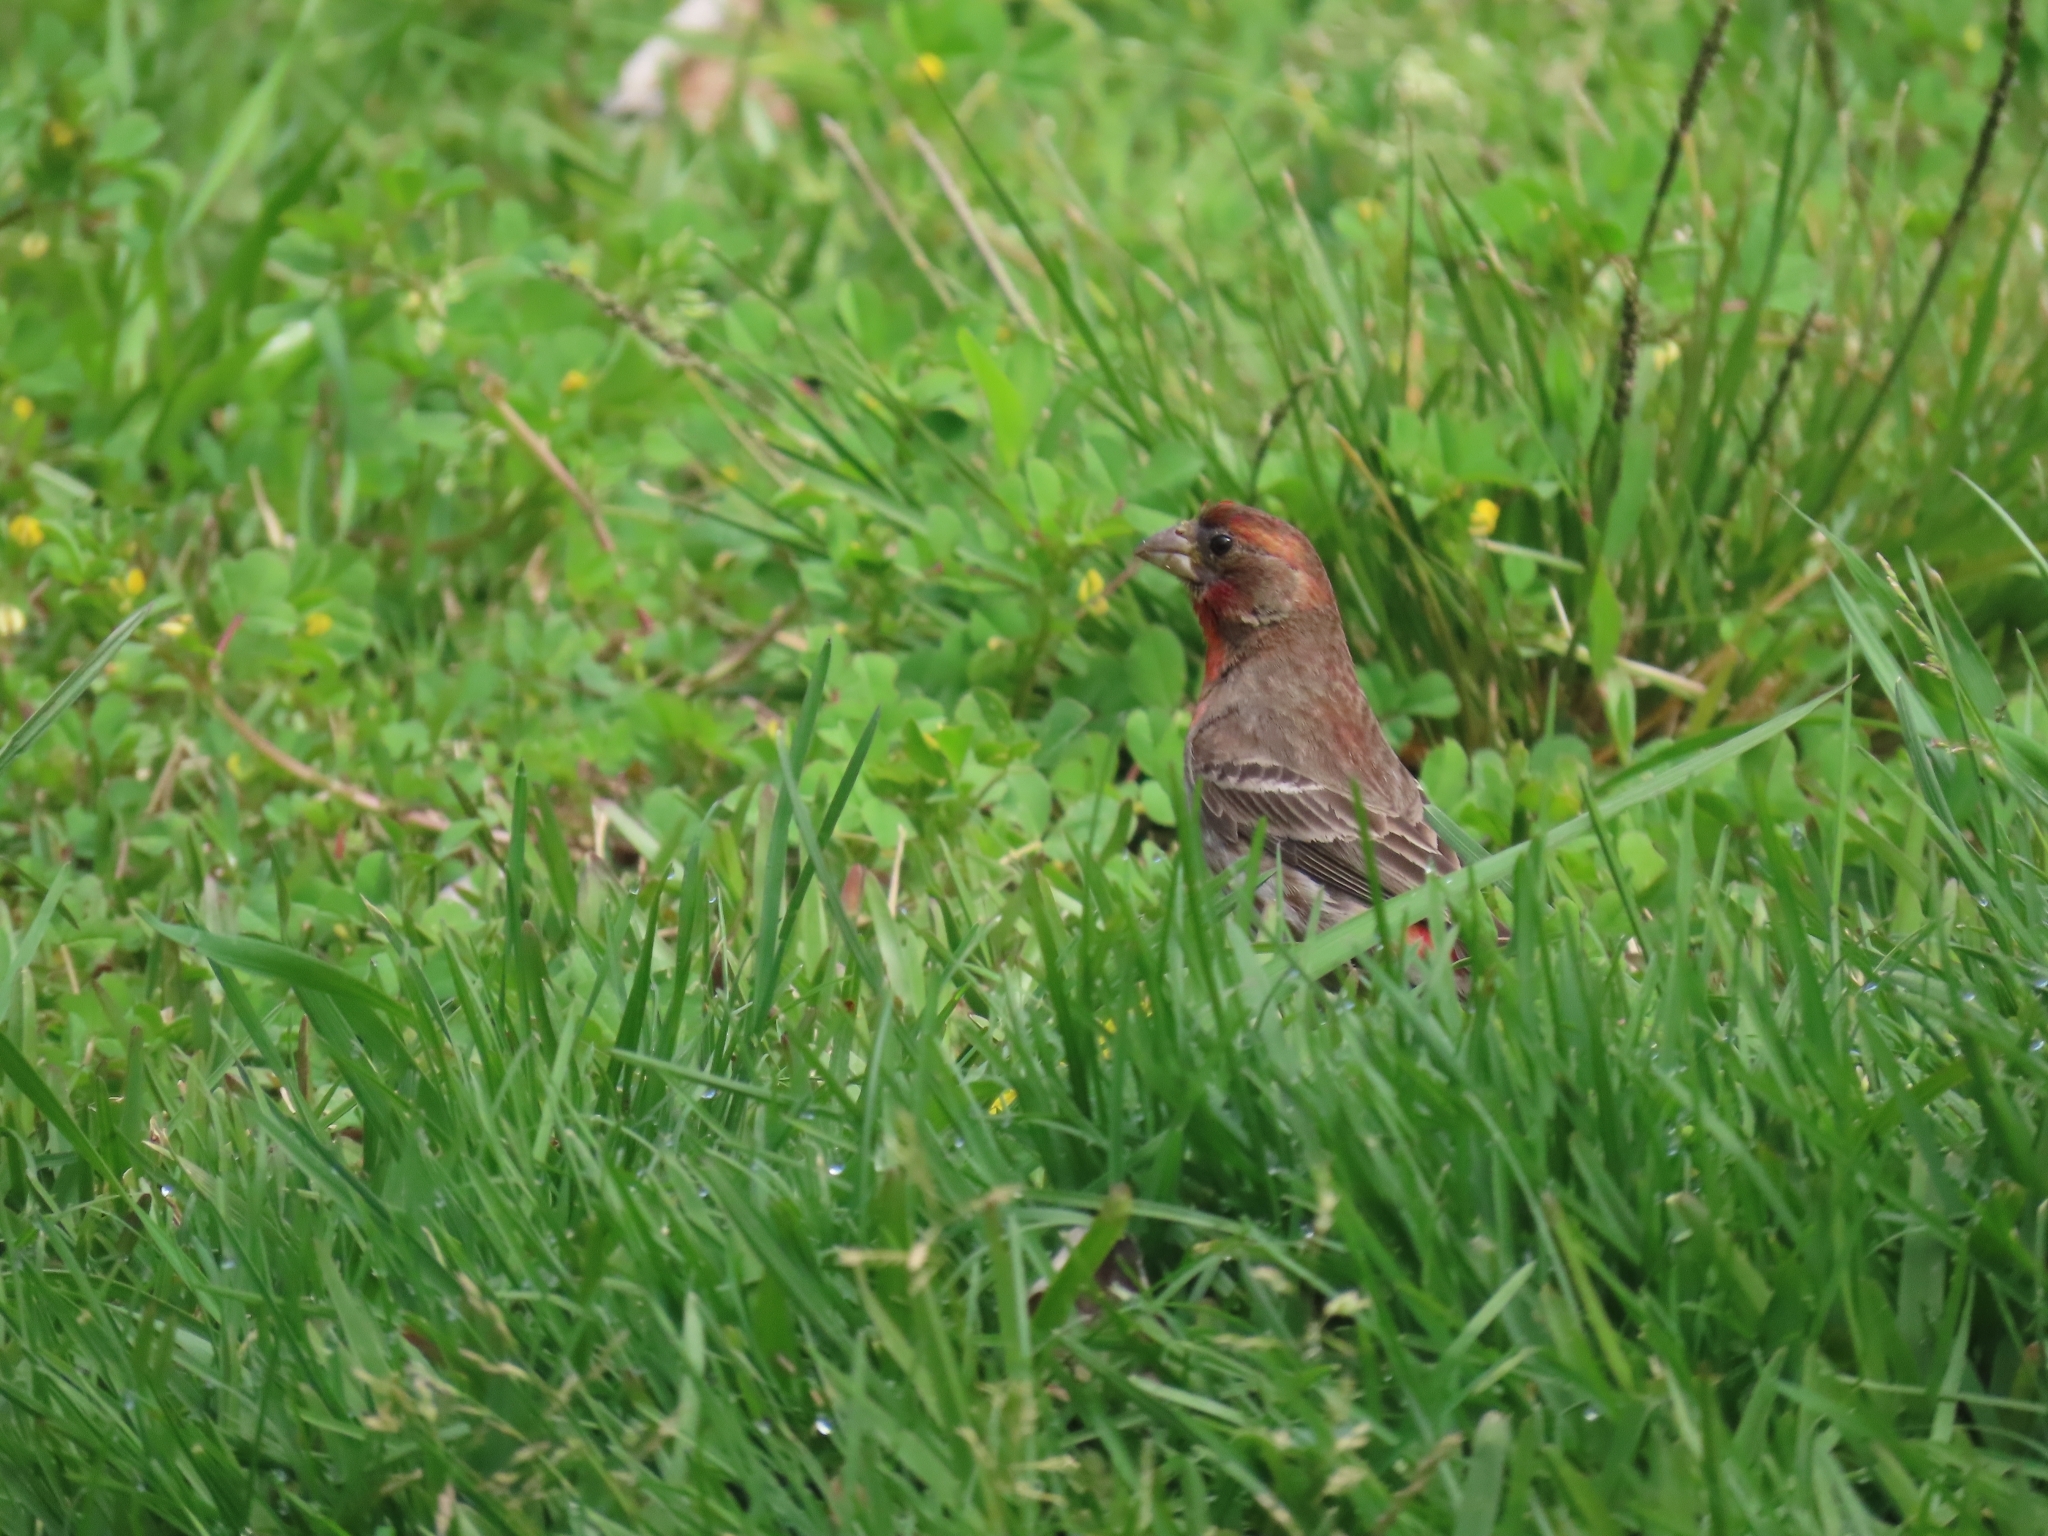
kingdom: Animalia
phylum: Chordata
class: Aves
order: Passeriformes
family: Fringillidae
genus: Haemorhous
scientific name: Haemorhous mexicanus
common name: House finch
